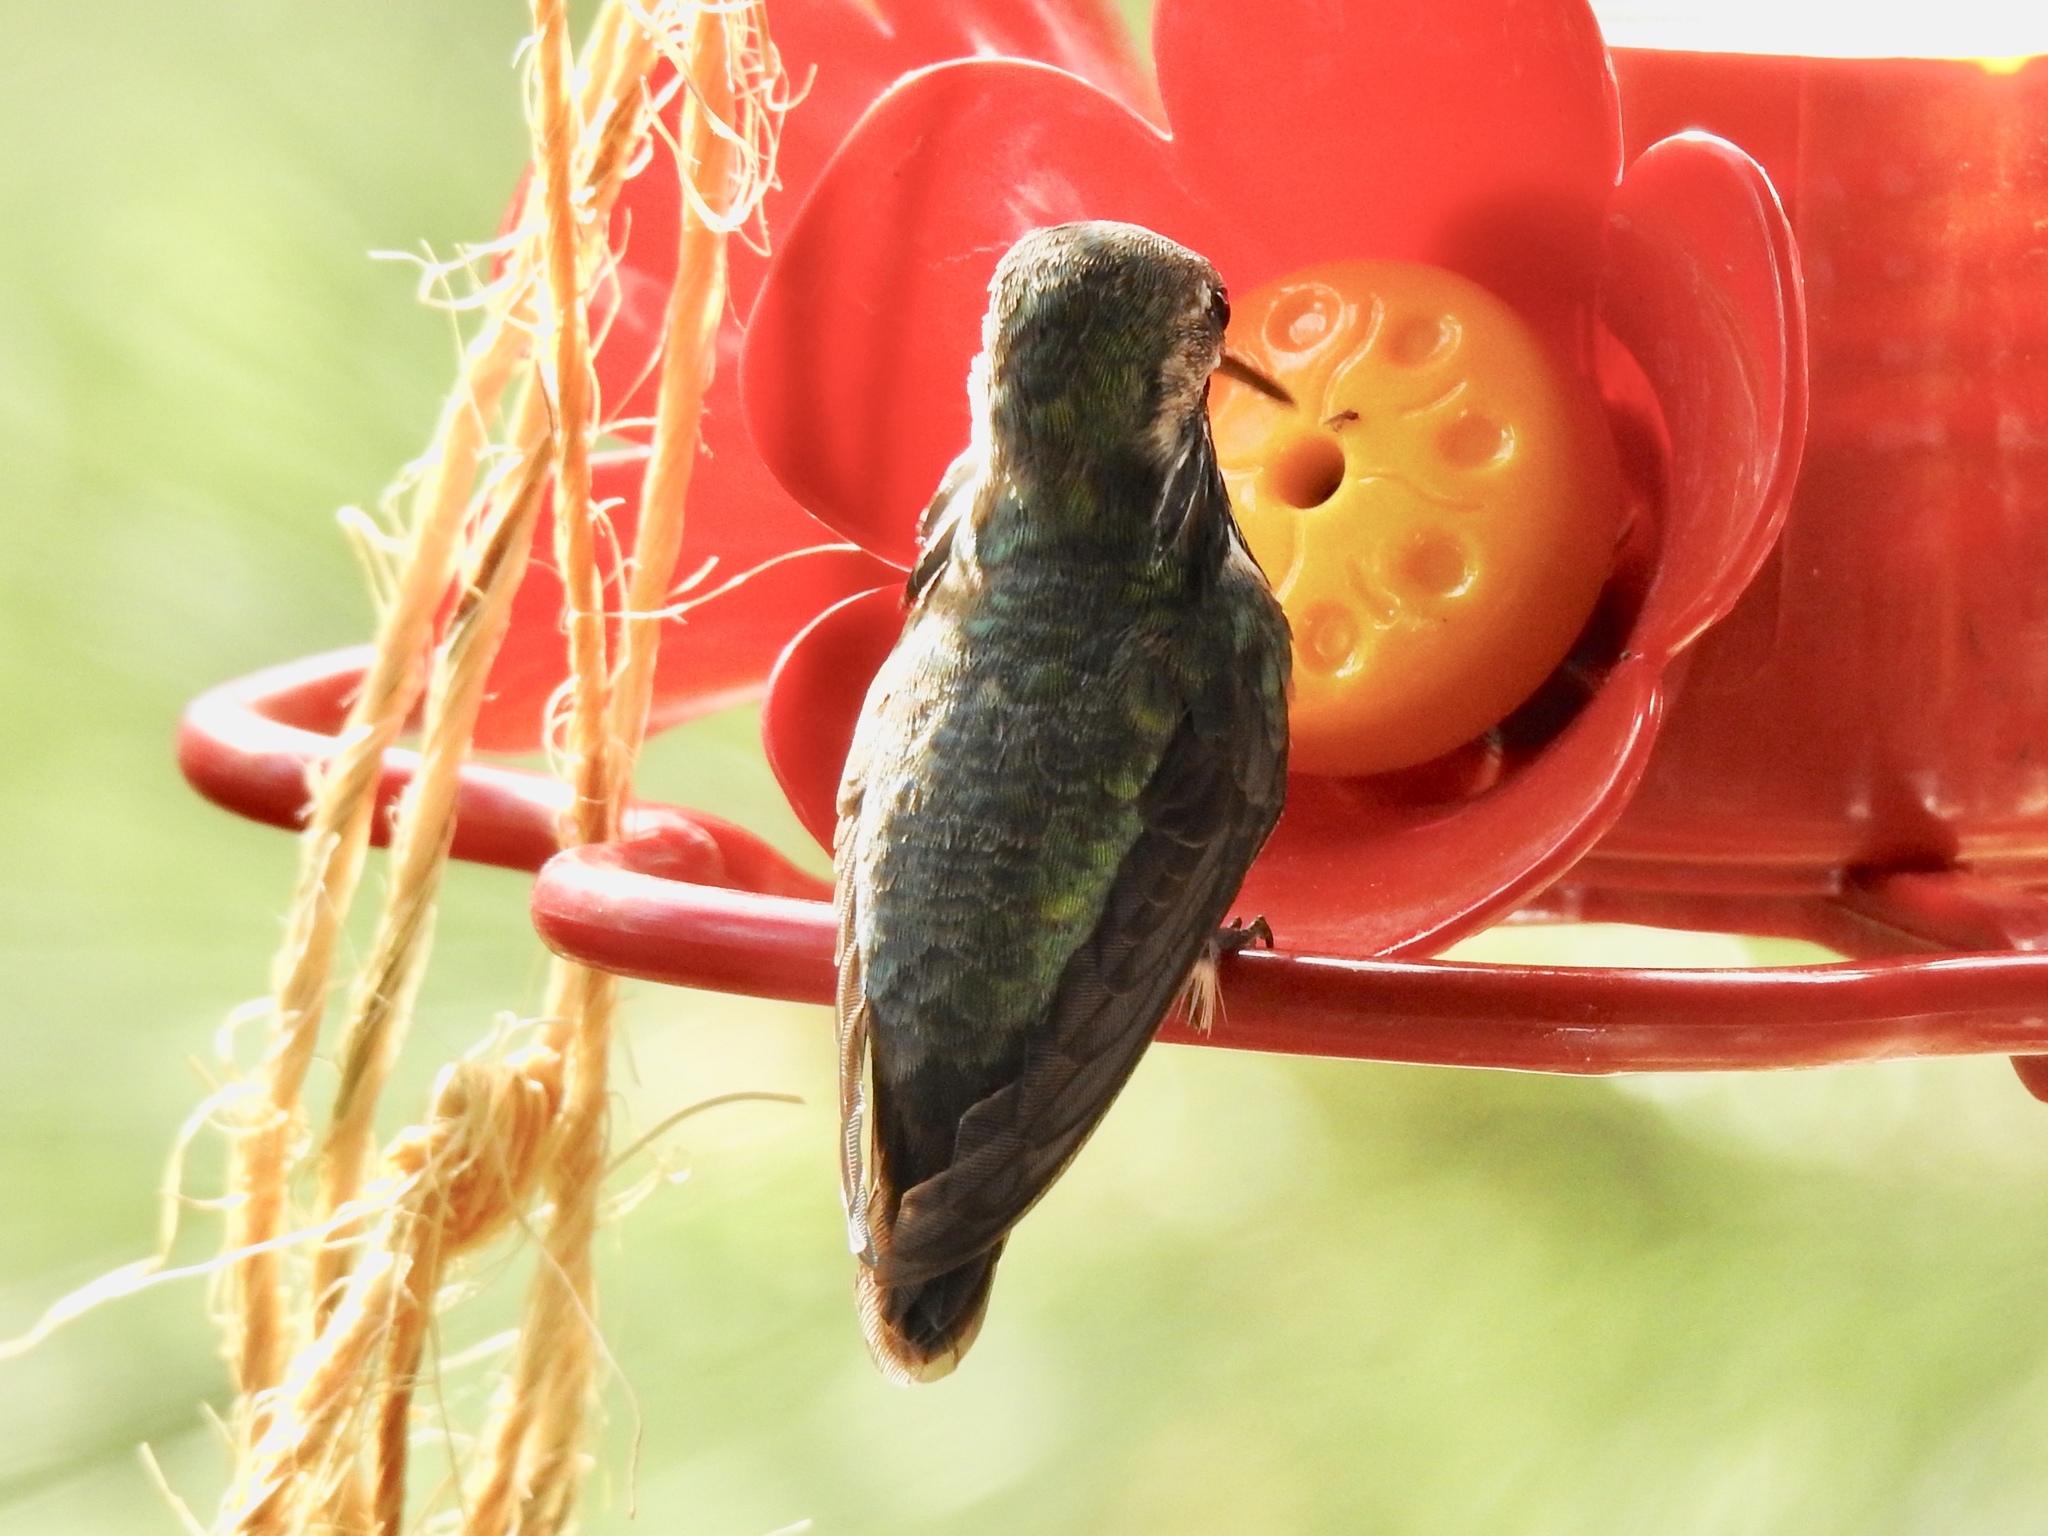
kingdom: Animalia
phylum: Chordata
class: Aves
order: Apodiformes
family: Trochilidae
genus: Selasphorus
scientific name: Selasphorus calliope
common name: Calliope hummingbird
